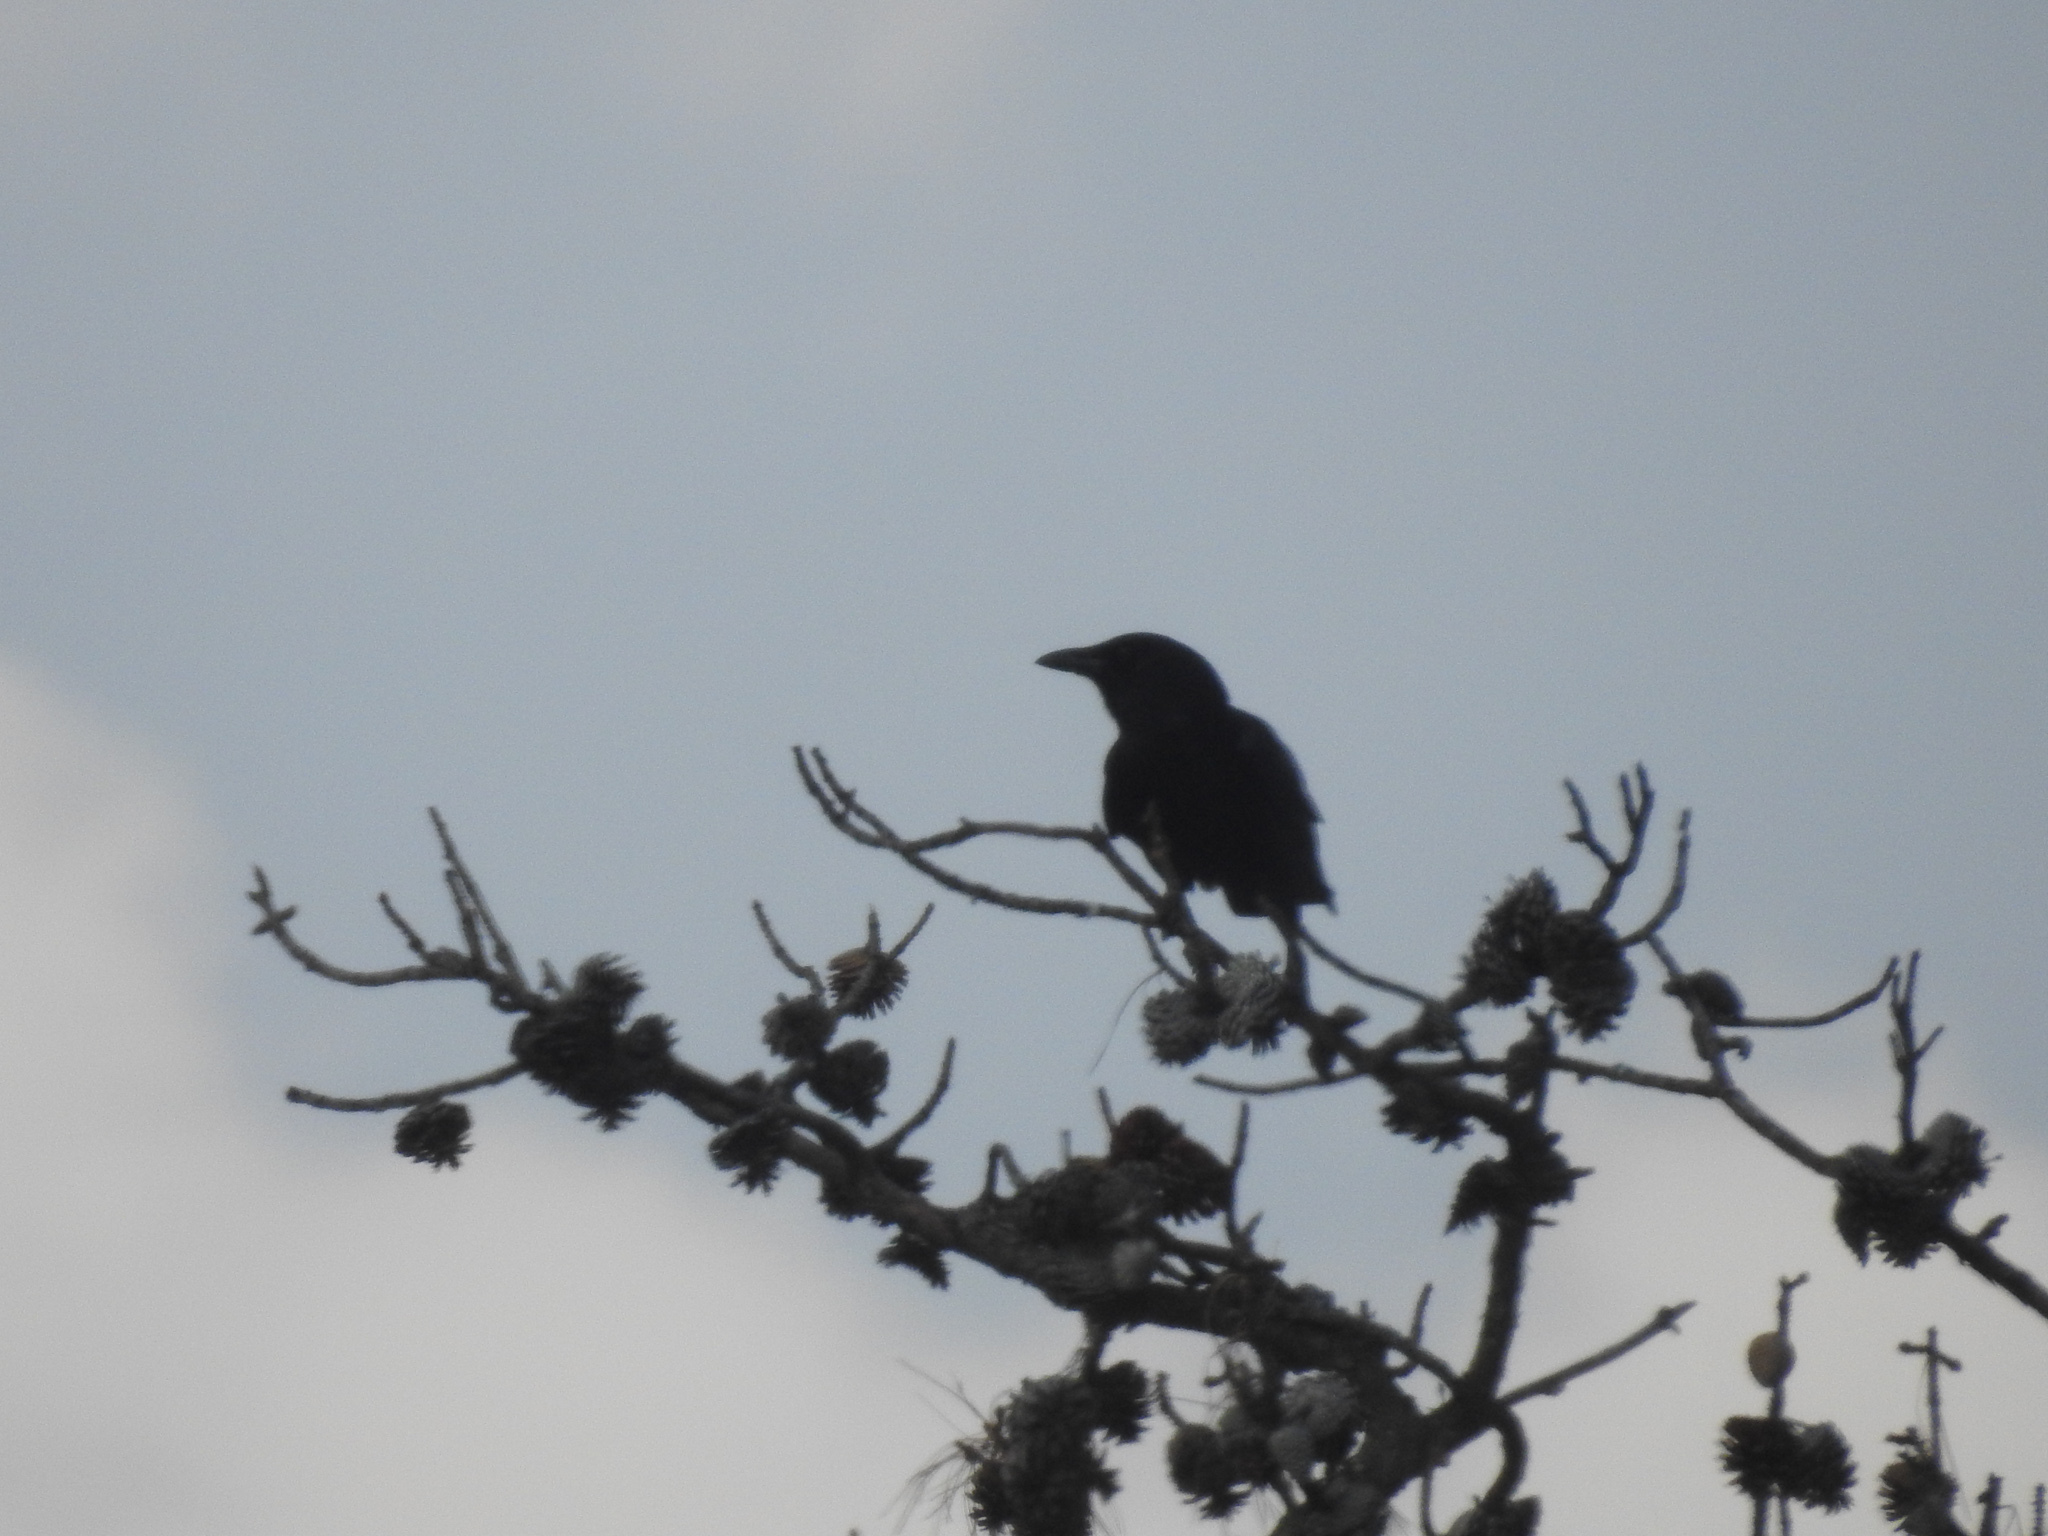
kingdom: Animalia
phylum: Chordata
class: Aves
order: Passeriformes
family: Corvidae
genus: Corvus
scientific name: Corvus brachyrhynchos
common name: American crow
